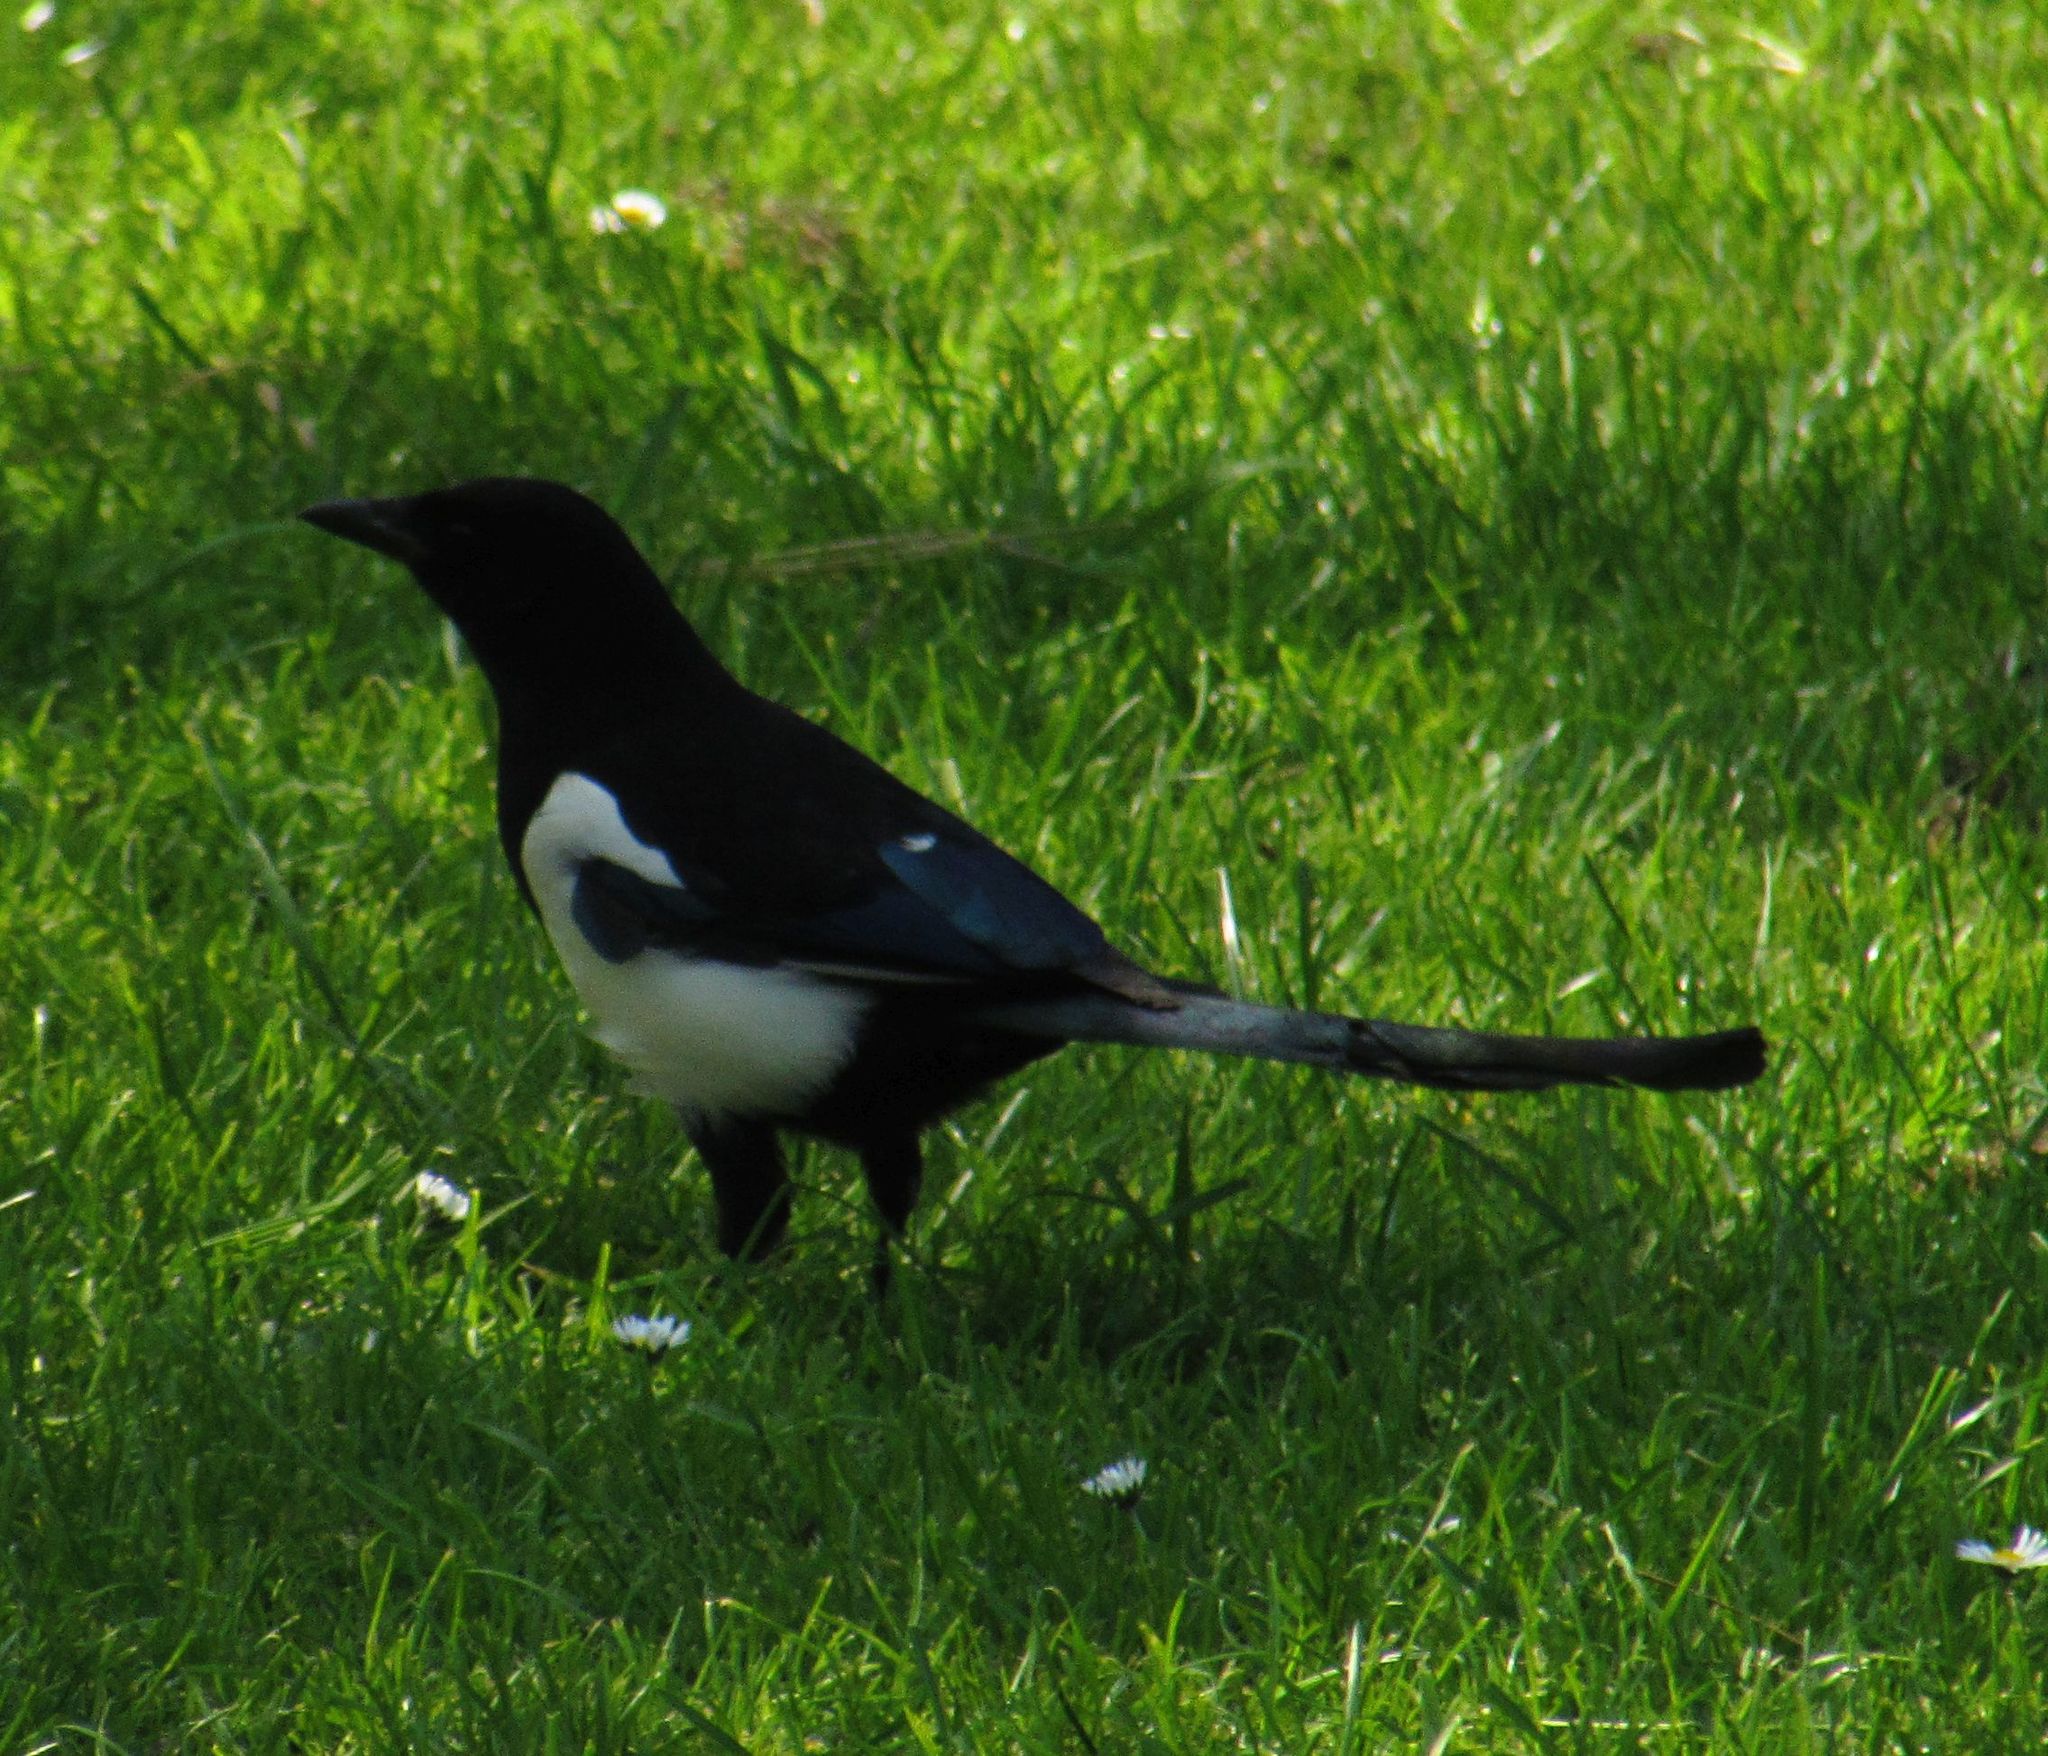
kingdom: Animalia
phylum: Chordata
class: Aves
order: Passeriformes
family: Corvidae
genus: Pica
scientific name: Pica pica
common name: Eurasian magpie
